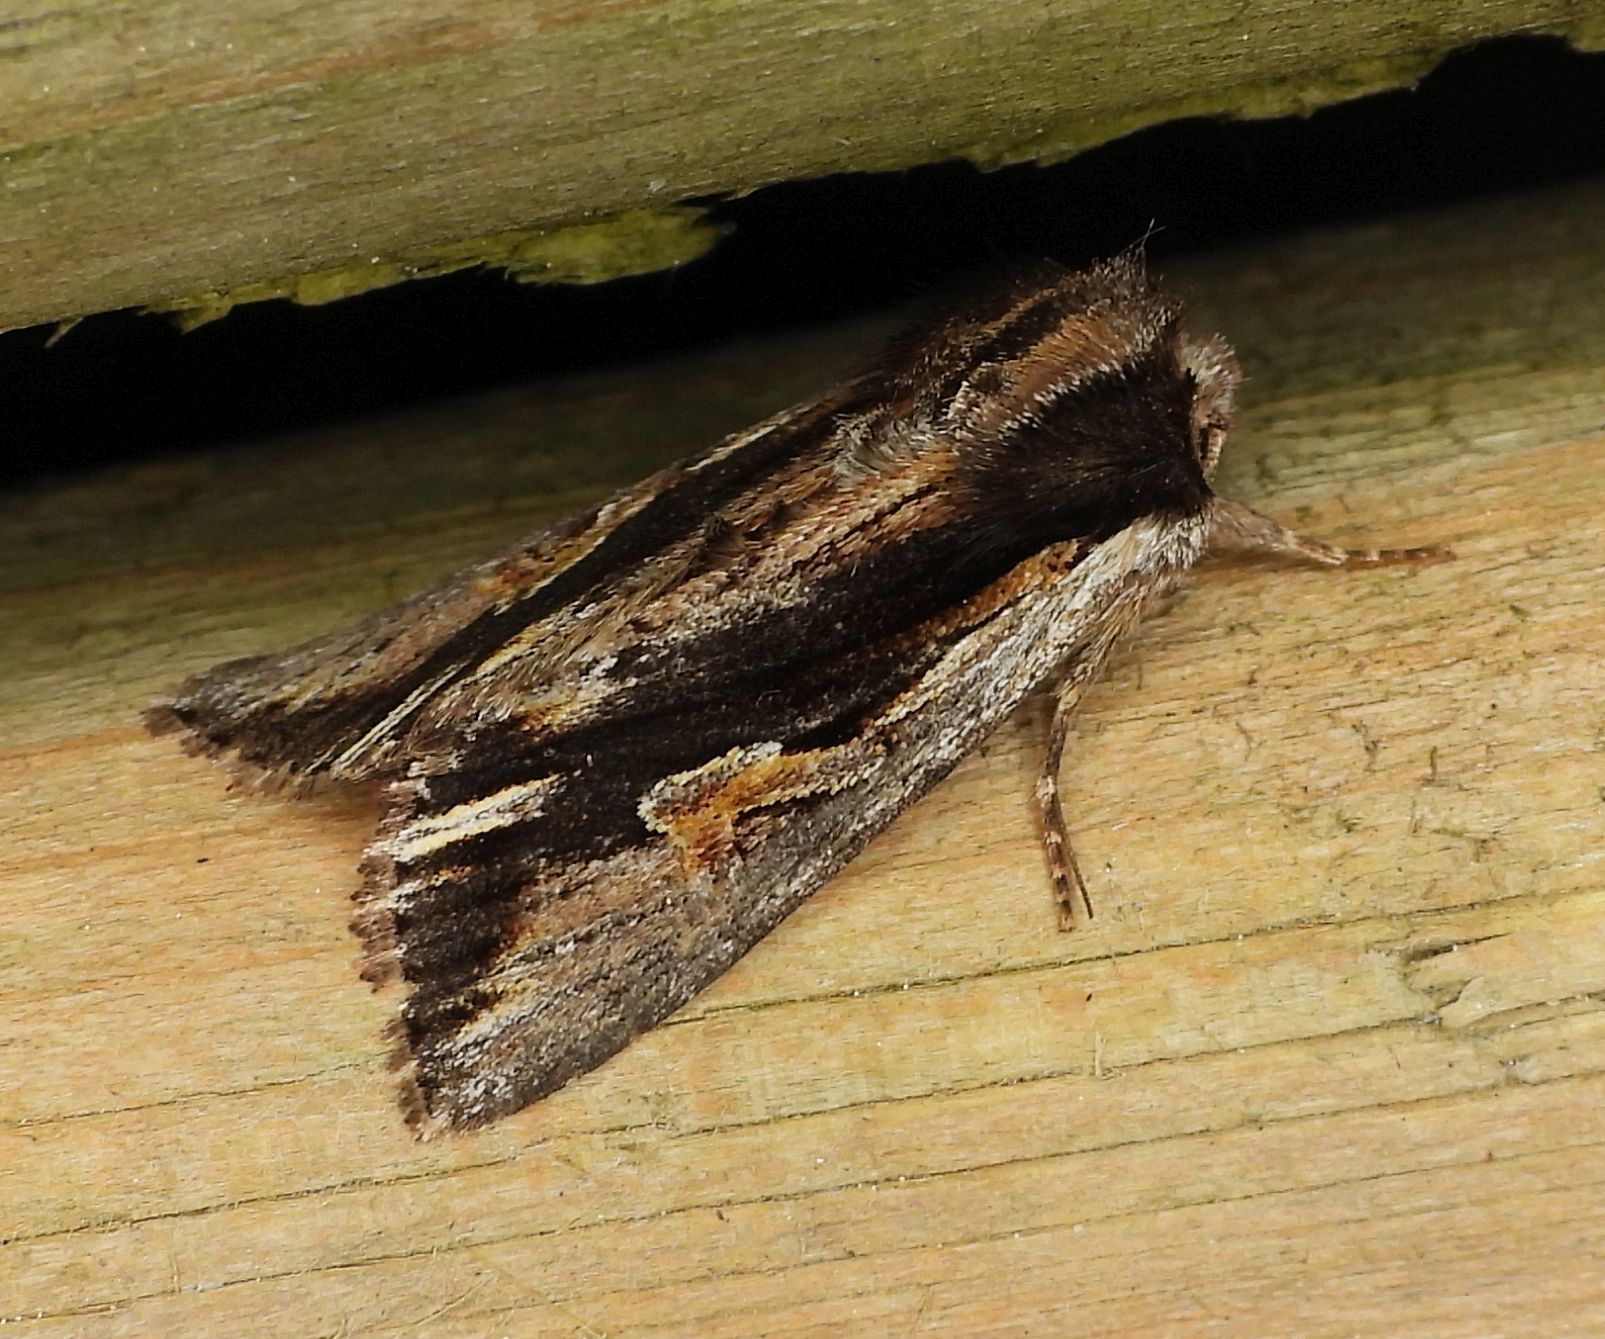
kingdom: Animalia
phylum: Arthropoda
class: Insecta
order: Lepidoptera
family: Noctuidae
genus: Achatia
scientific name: Achatia evicta
